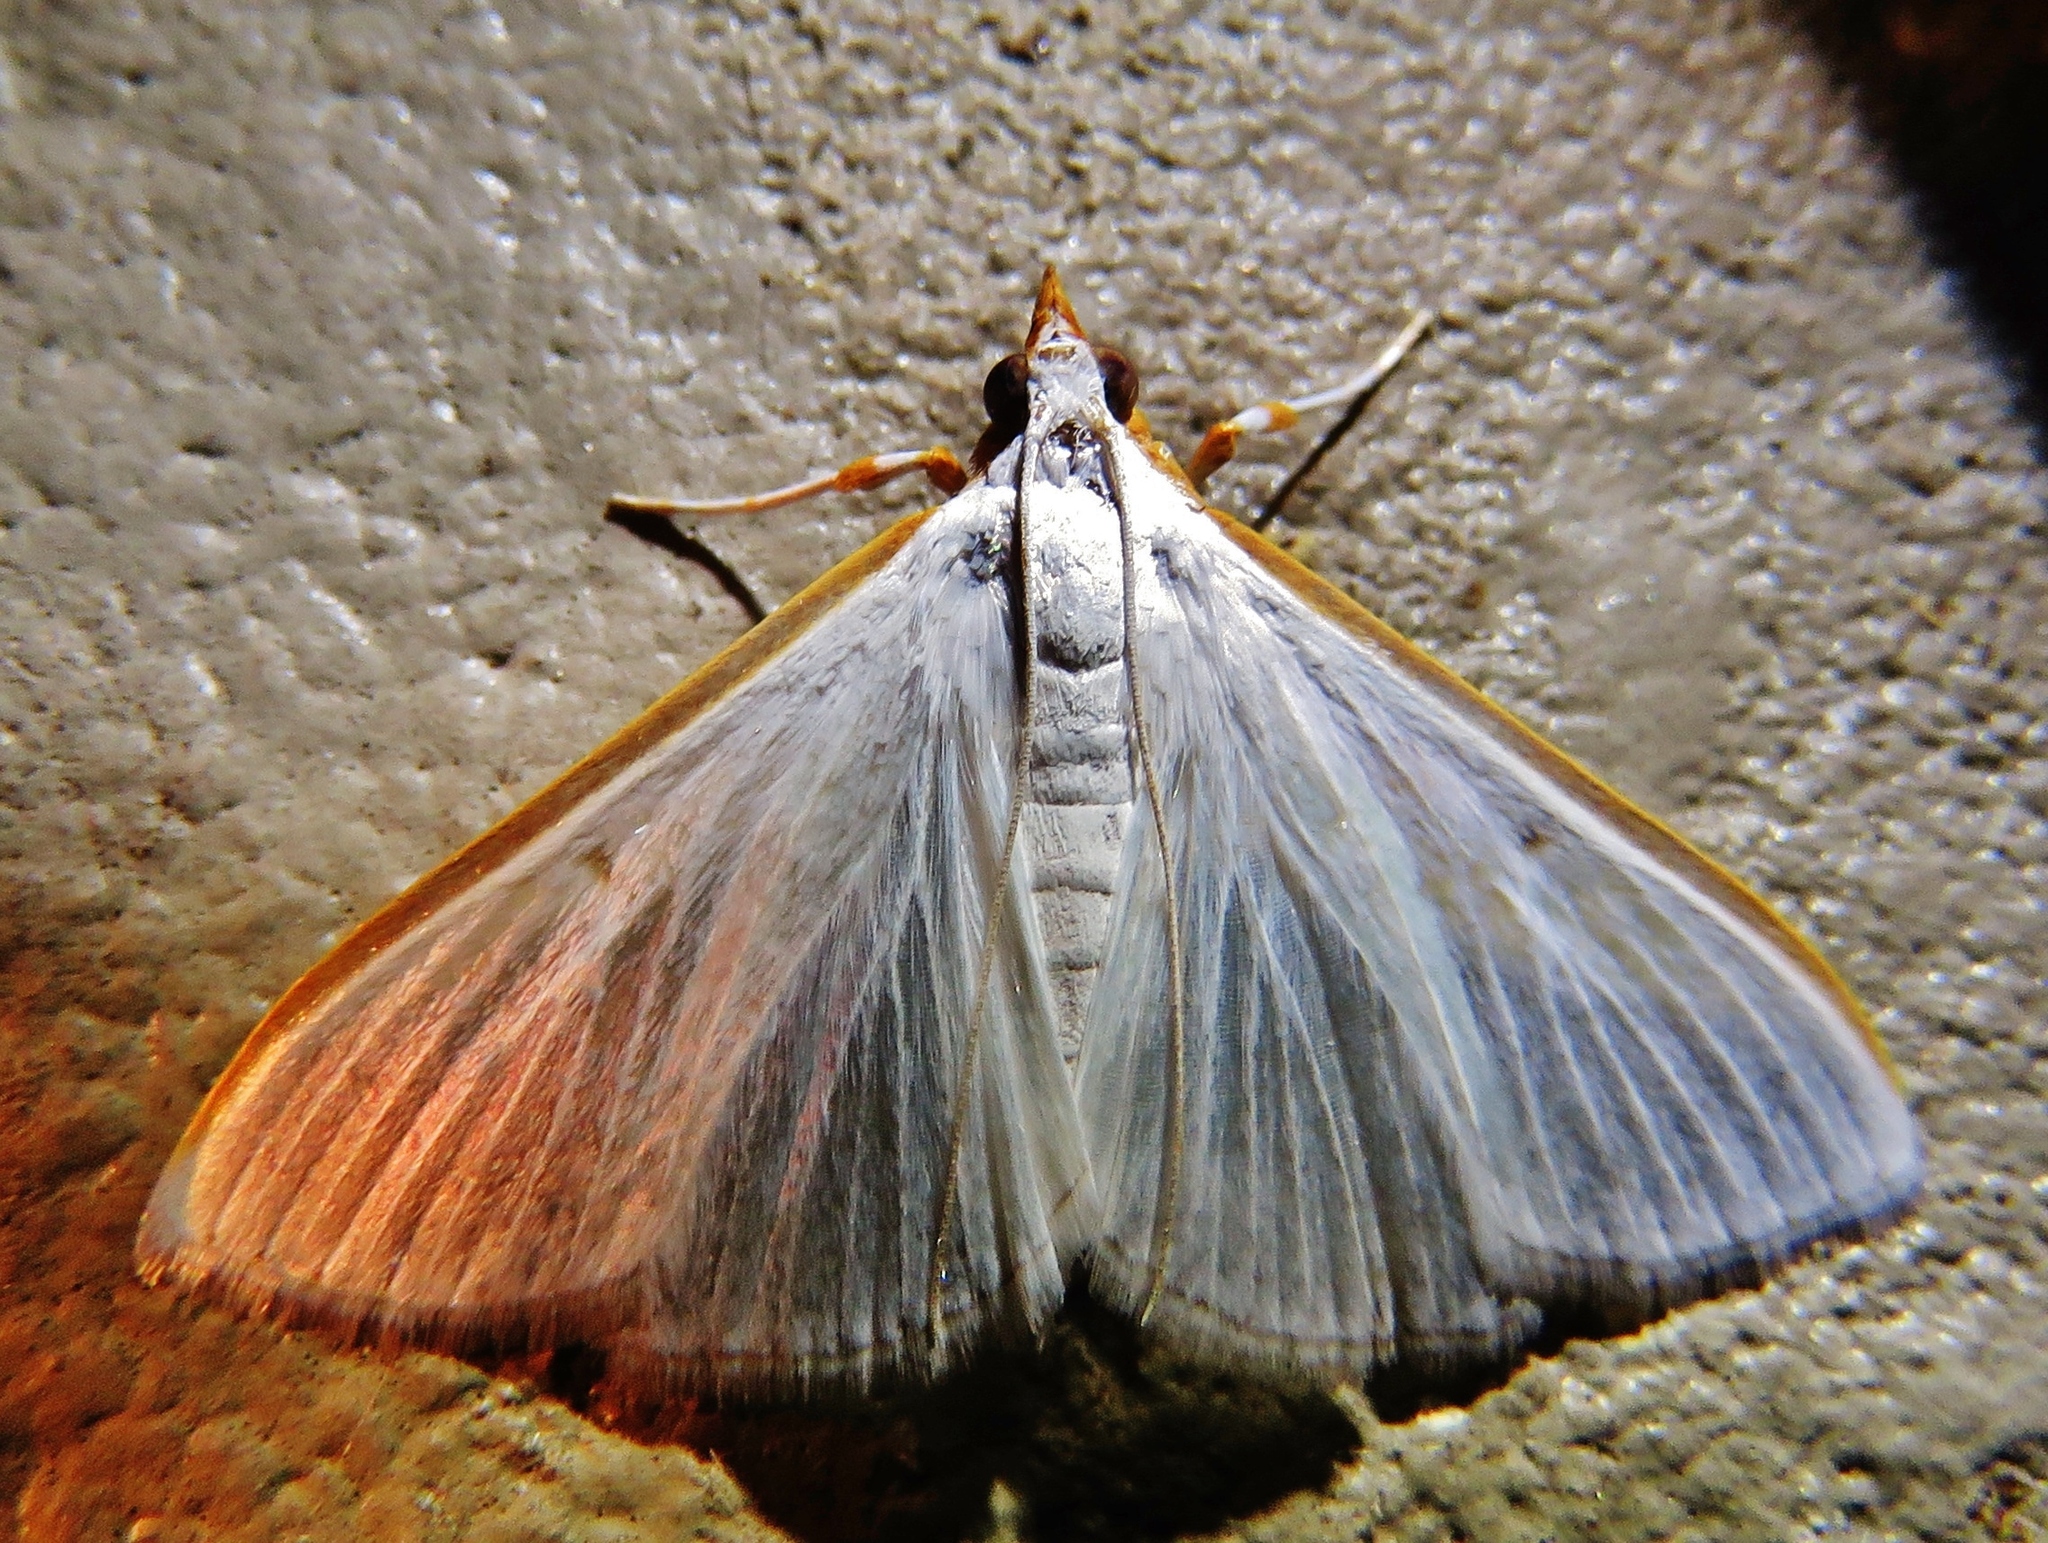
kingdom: Animalia
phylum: Arthropoda
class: Insecta
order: Lepidoptera
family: Crambidae
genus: Diaphania
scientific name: Diaphania costata
